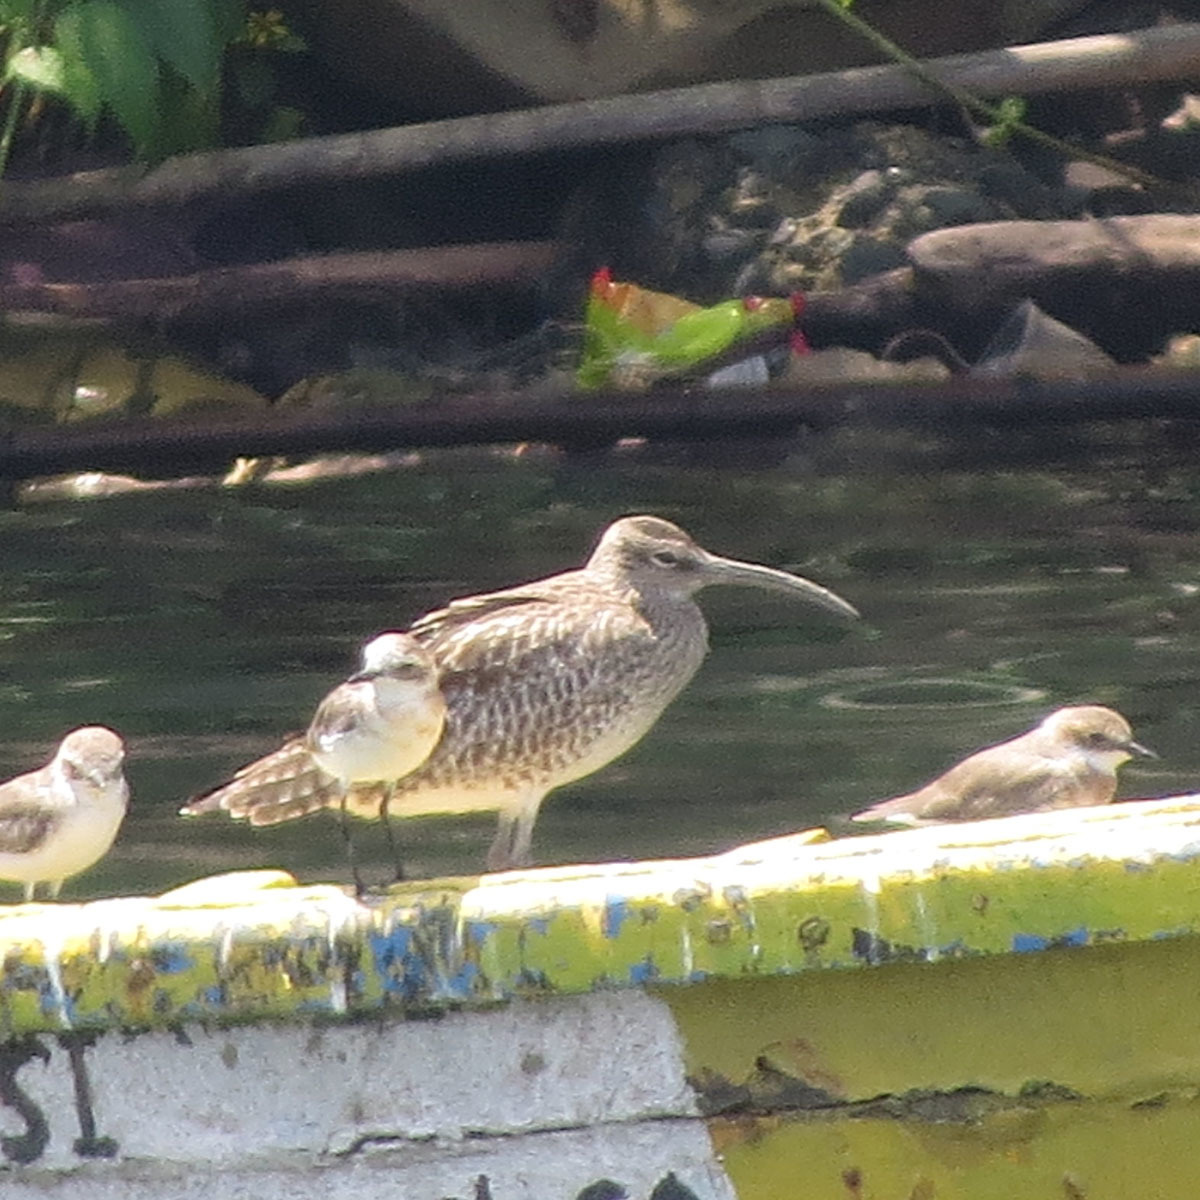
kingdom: Animalia
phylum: Chordata
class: Aves
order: Charadriiformes
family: Scolopacidae
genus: Numenius
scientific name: Numenius phaeopus
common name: Whimbrel
